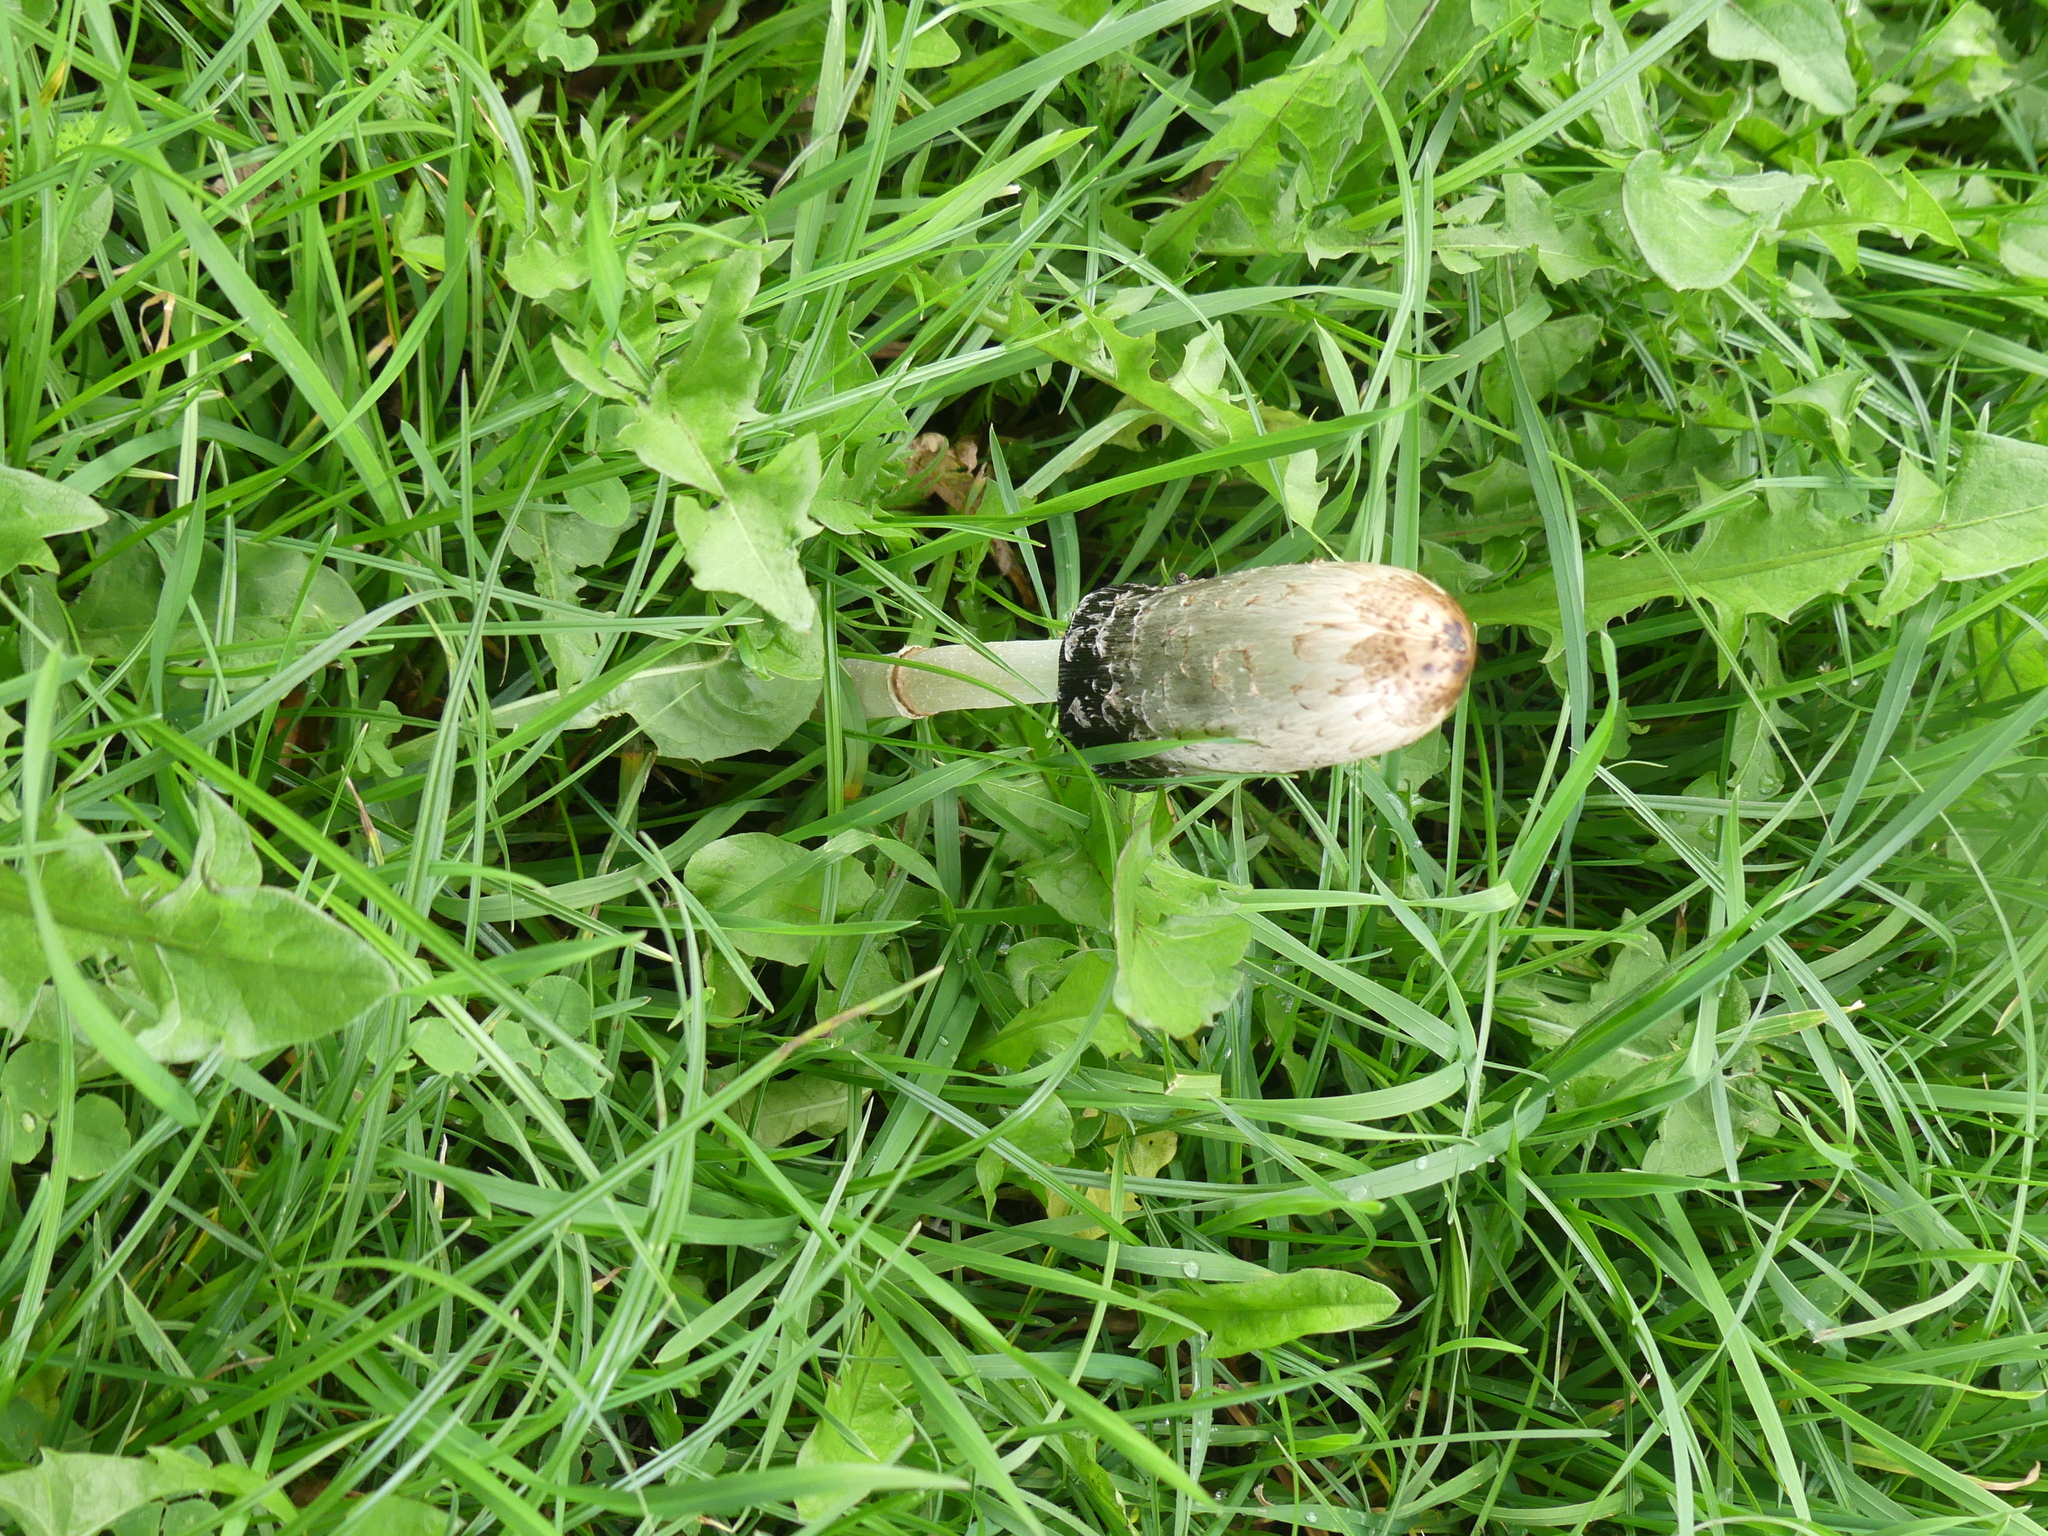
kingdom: Fungi
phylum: Basidiomycota
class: Agaricomycetes
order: Agaricales
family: Agaricaceae
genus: Coprinus
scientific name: Coprinus comatus
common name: Lawyer's wig
